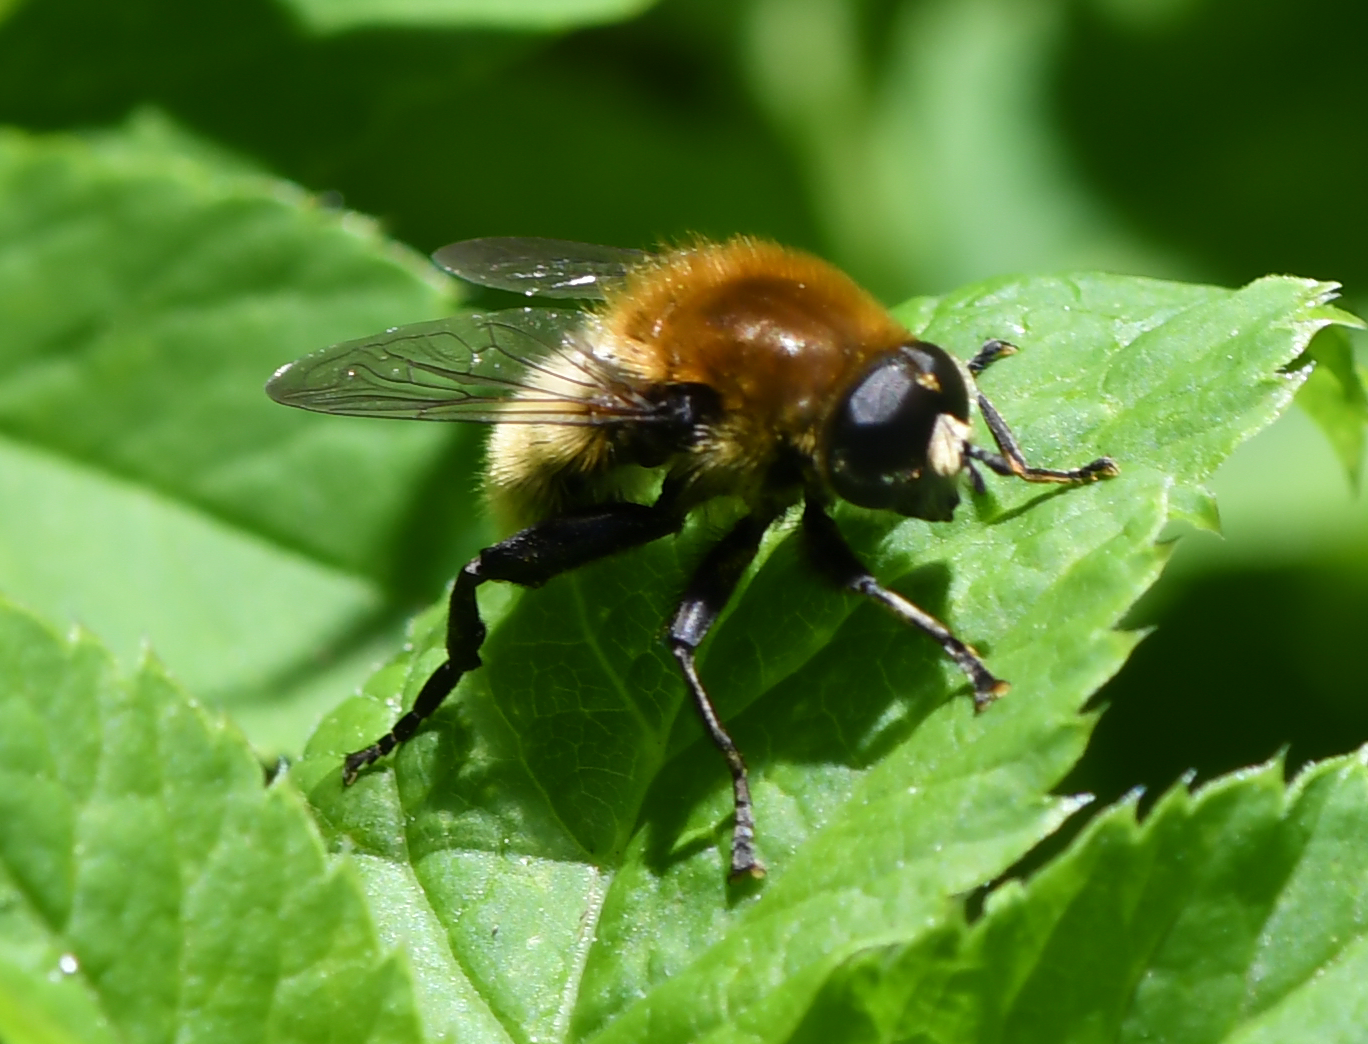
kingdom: Animalia
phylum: Arthropoda
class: Insecta
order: Diptera
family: Syrphidae
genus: Merodon
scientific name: Merodon equestris
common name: Greater bulb-fly
